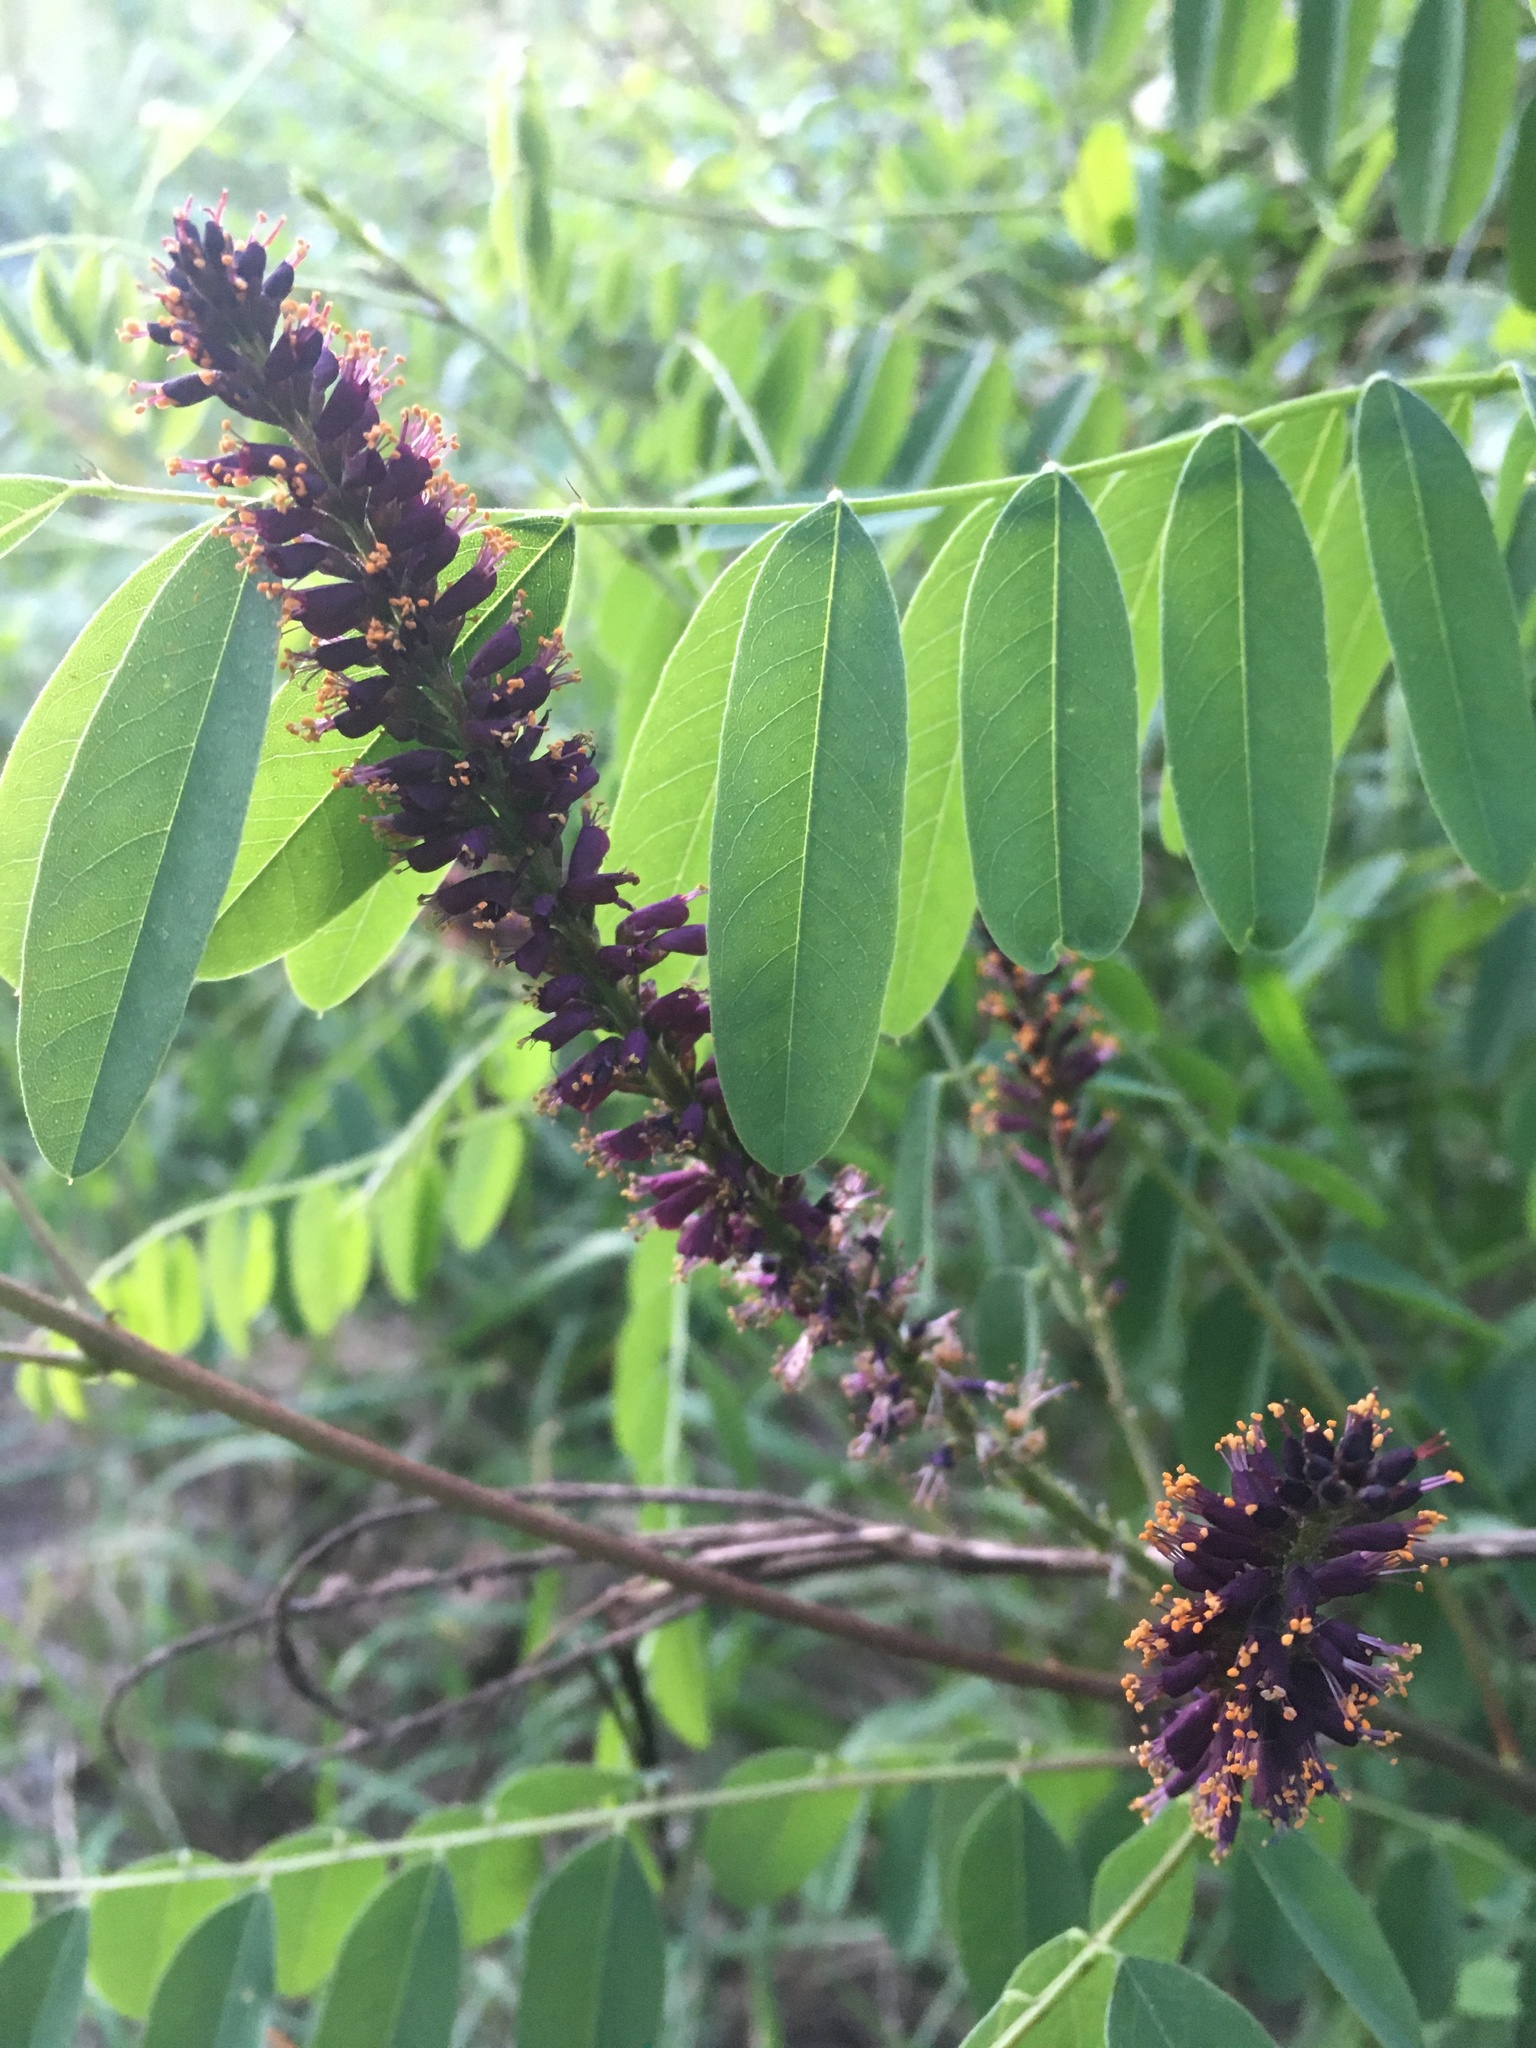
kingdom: Plantae
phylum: Tracheophyta
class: Magnoliopsida
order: Fabales
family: Fabaceae
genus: Amorpha
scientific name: Amorpha fruticosa
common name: False indigo
